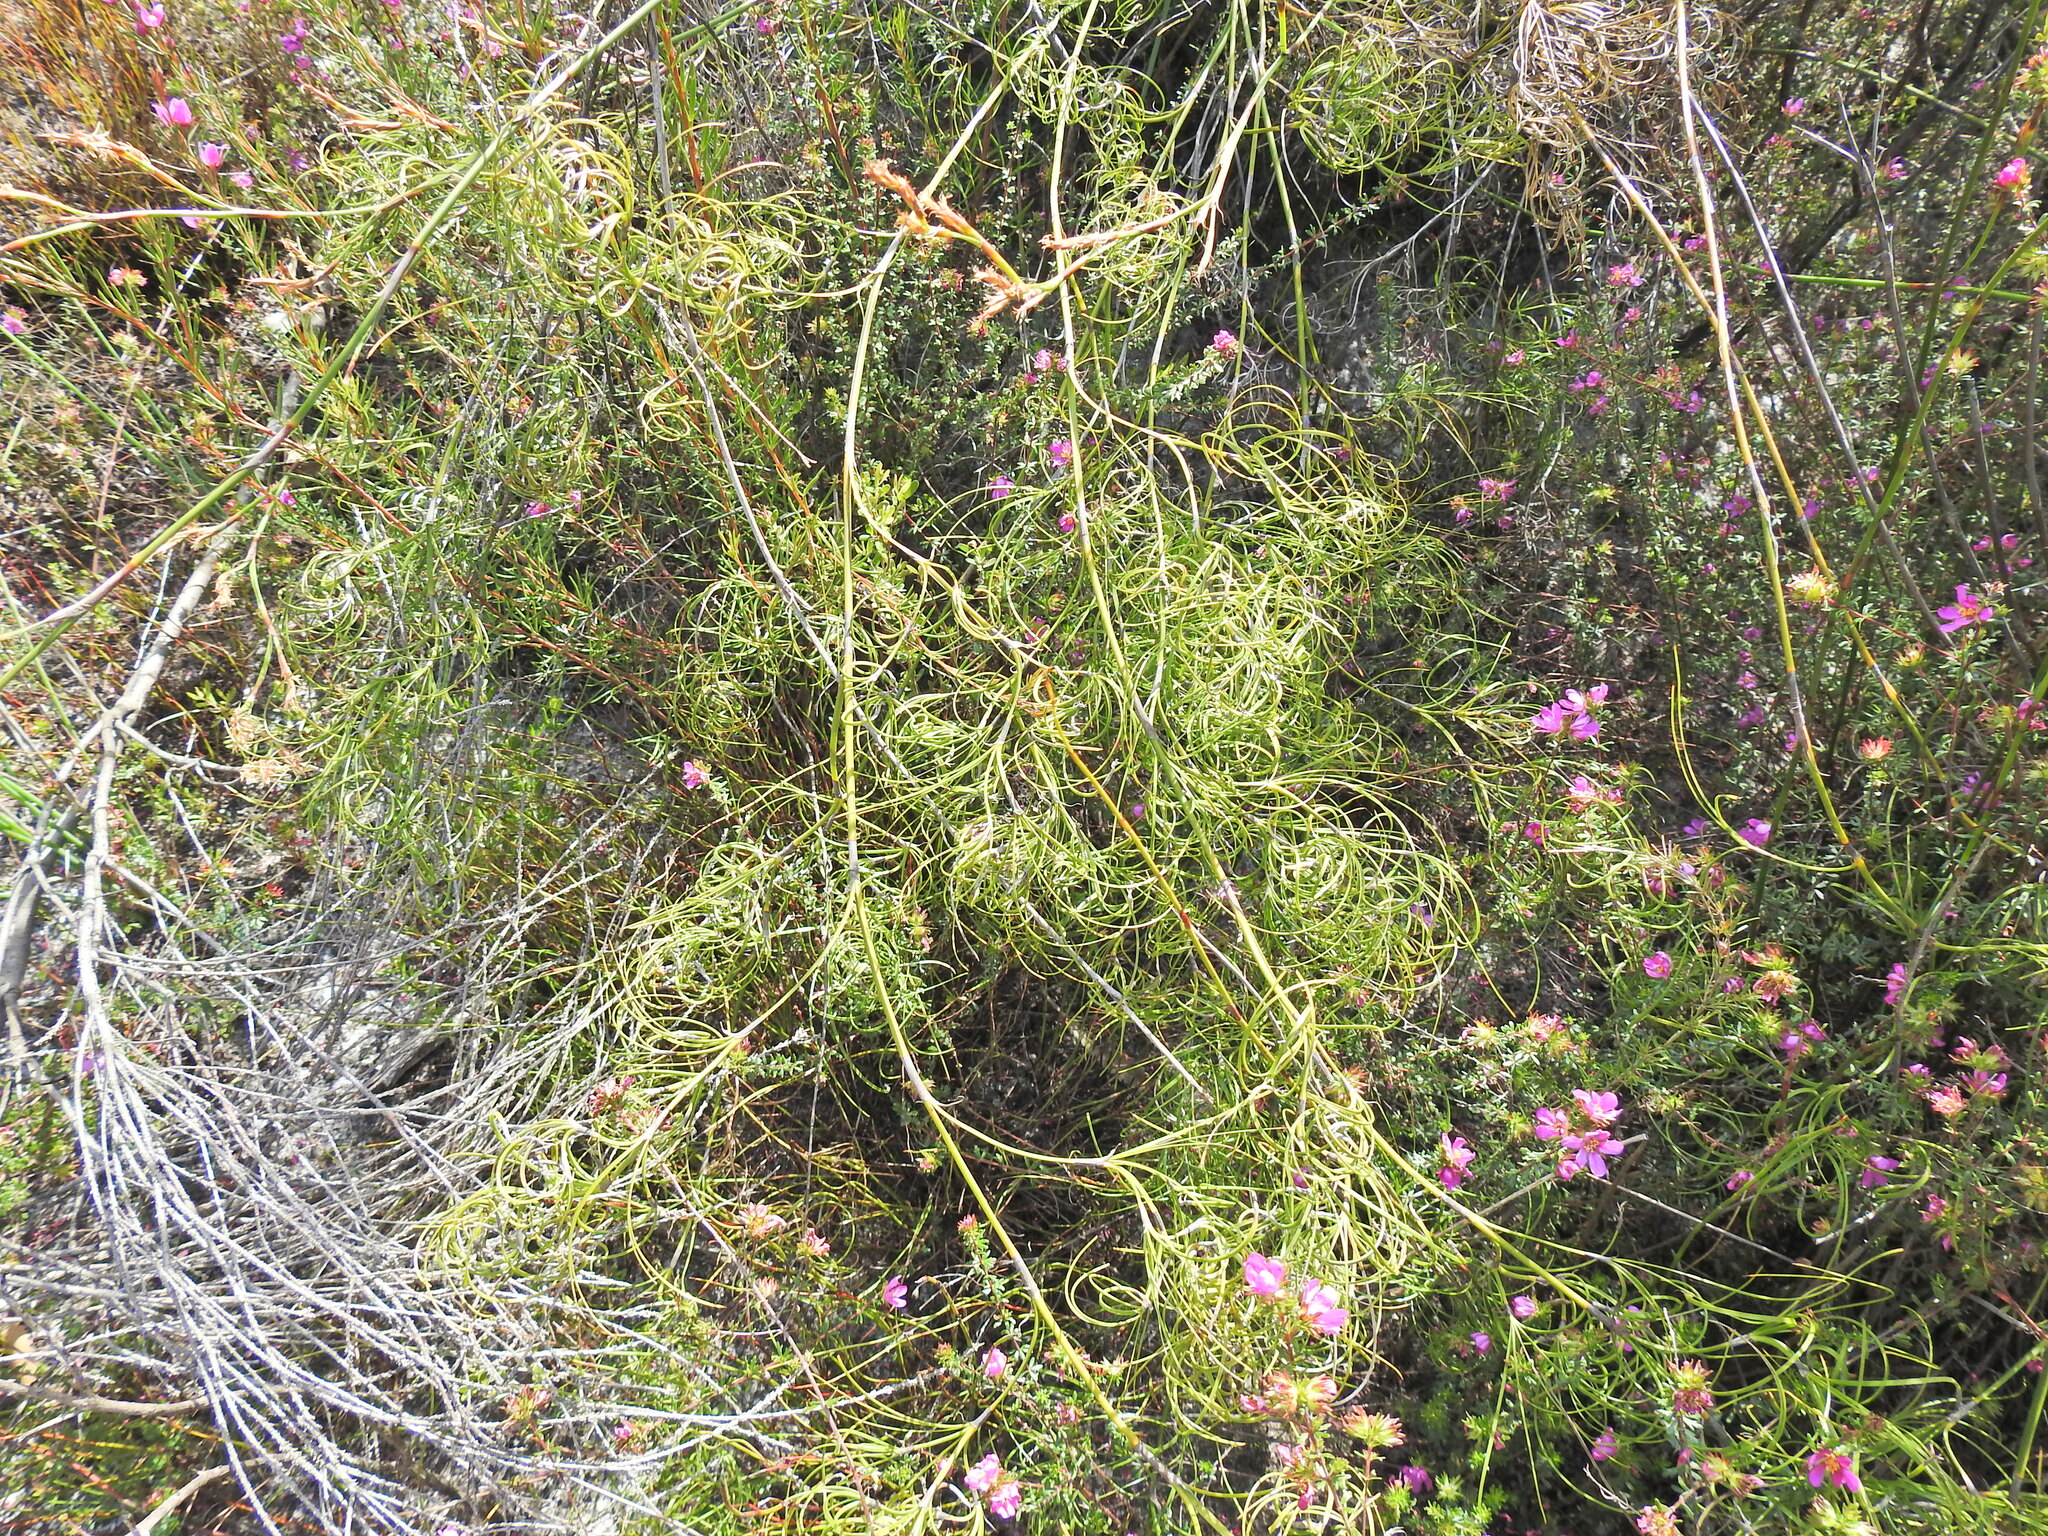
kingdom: Plantae
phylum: Tracheophyta
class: Liliopsida
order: Poales
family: Cyperaceae
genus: Caustis
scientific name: Caustis recurvata
